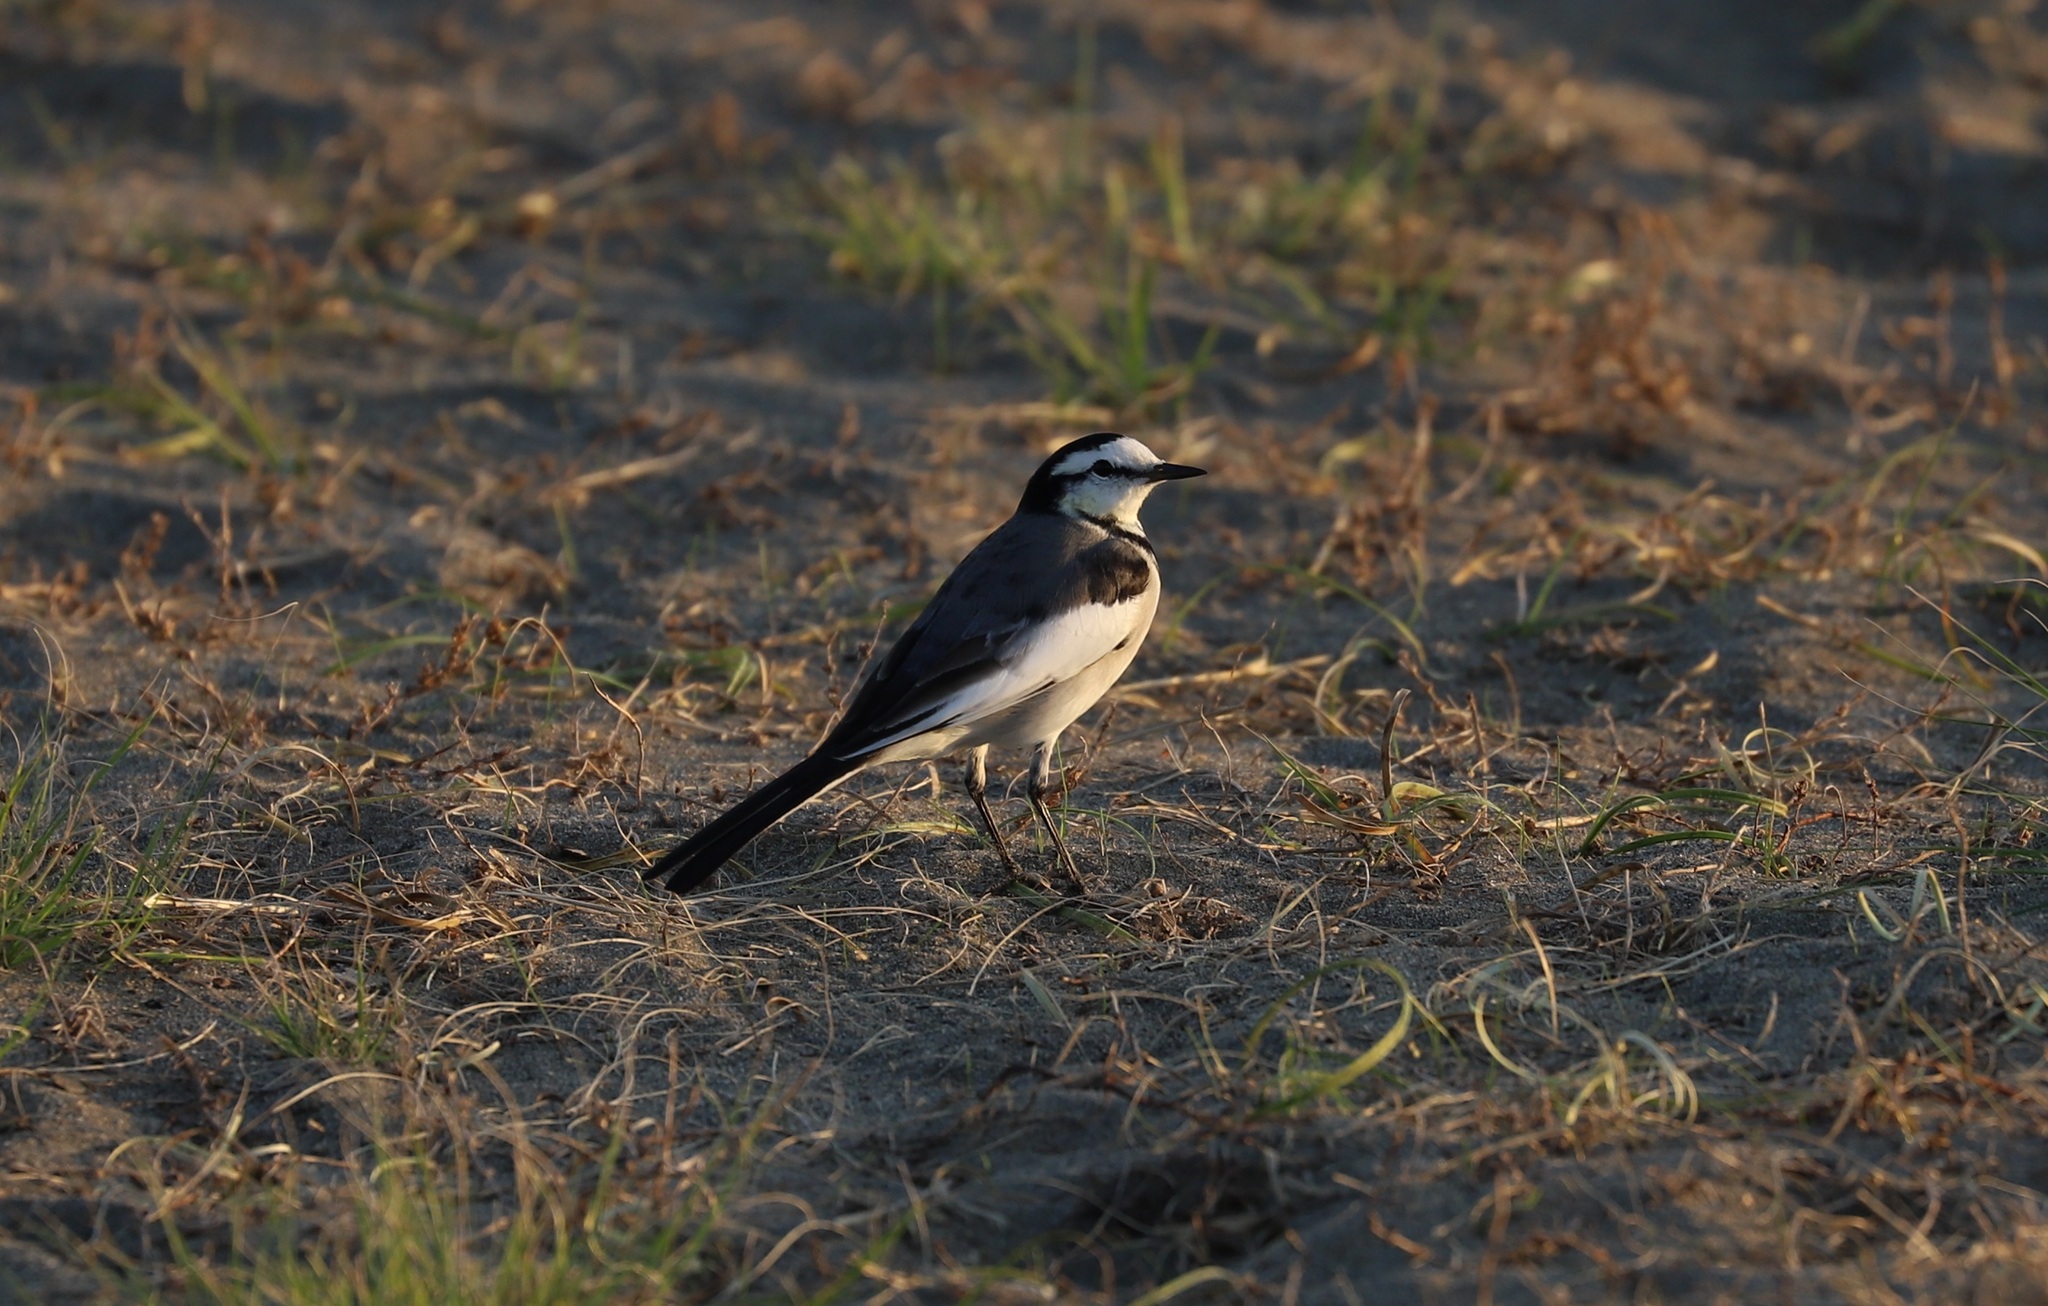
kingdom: Animalia
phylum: Chordata
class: Aves
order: Passeriformes
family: Motacillidae
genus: Motacilla
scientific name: Motacilla alba
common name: White wagtail
